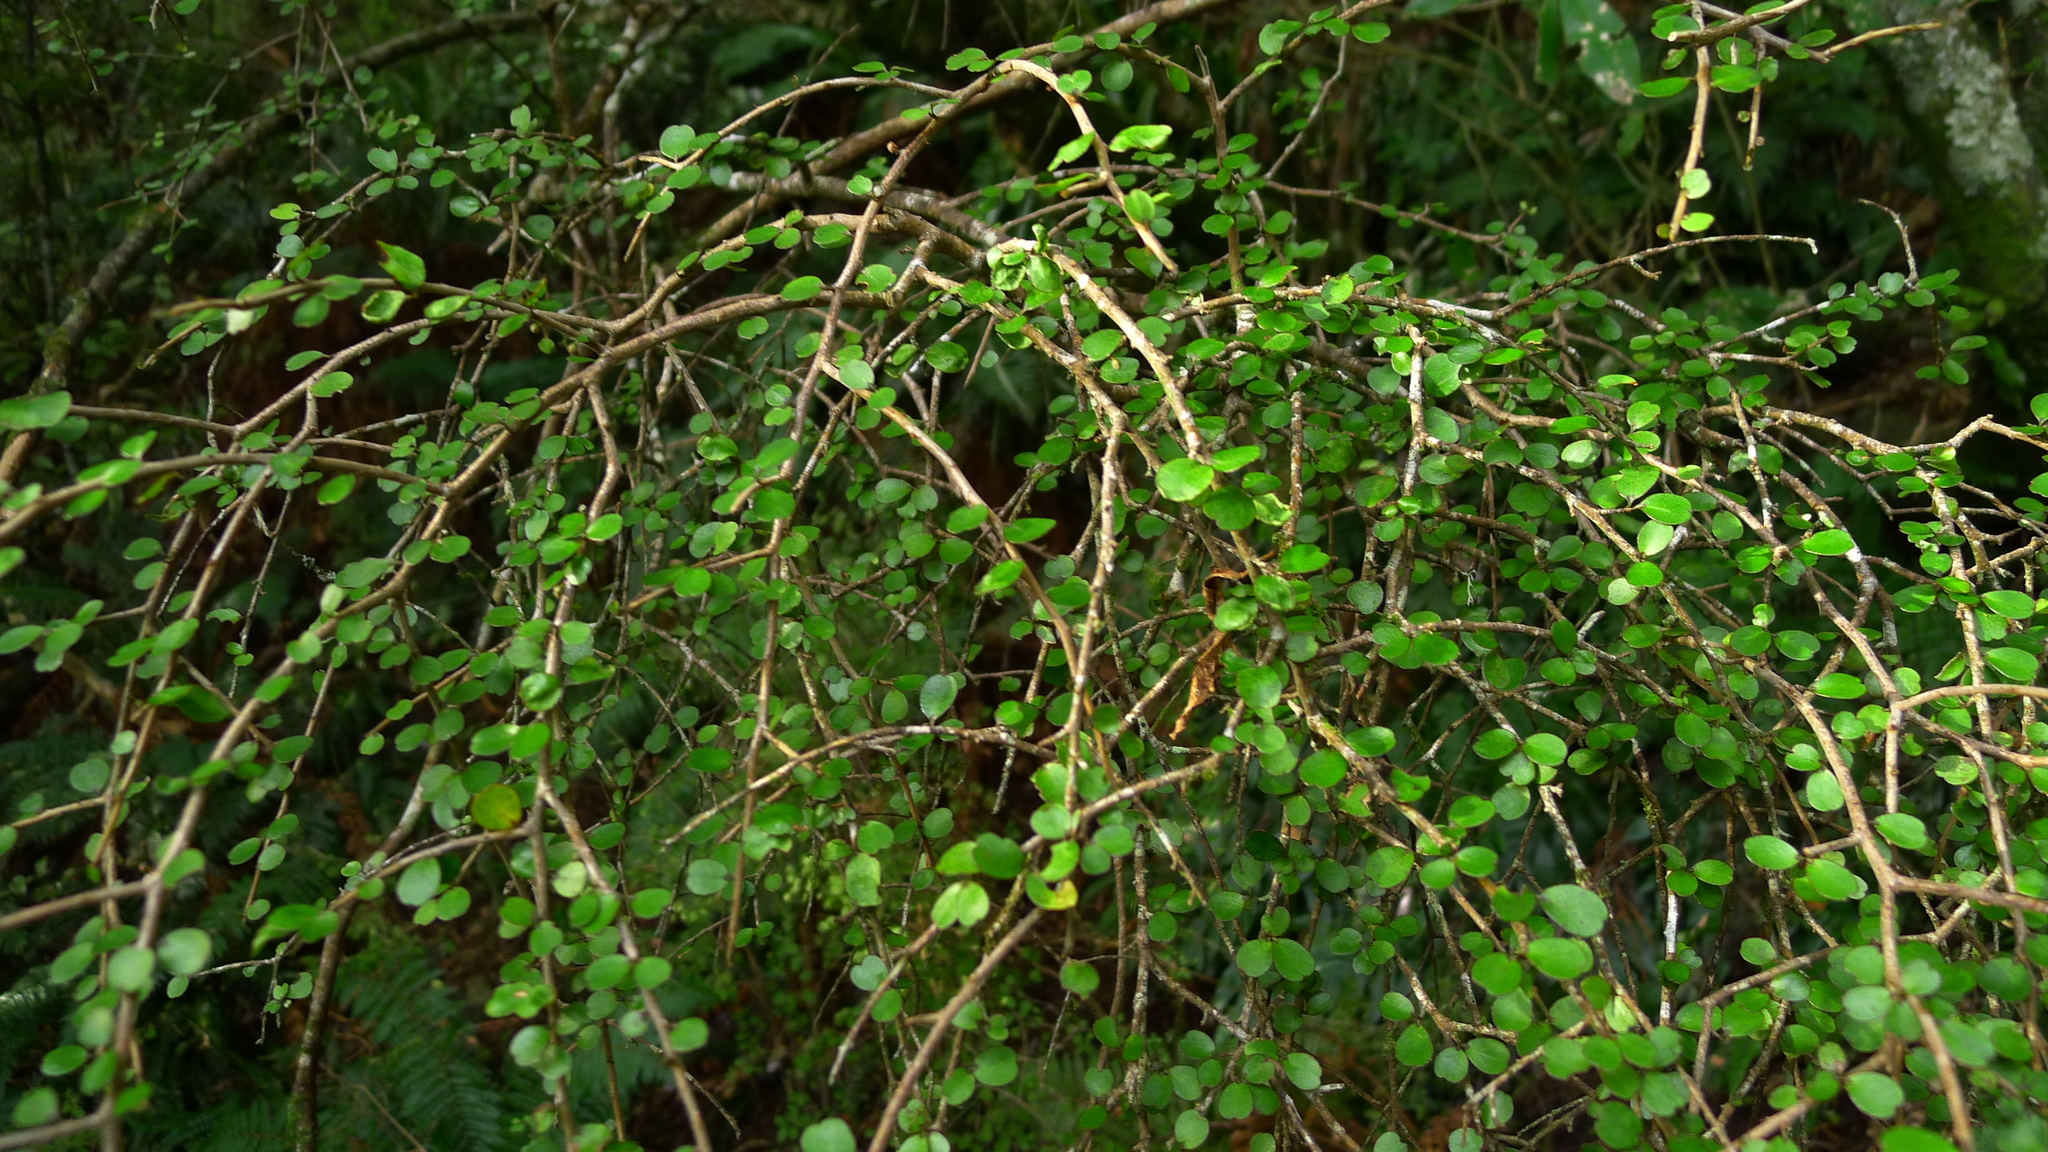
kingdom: Plantae
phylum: Tracheophyta
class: Magnoliopsida
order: Ericales
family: Primulaceae
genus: Myrsine
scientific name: Myrsine divaricata
